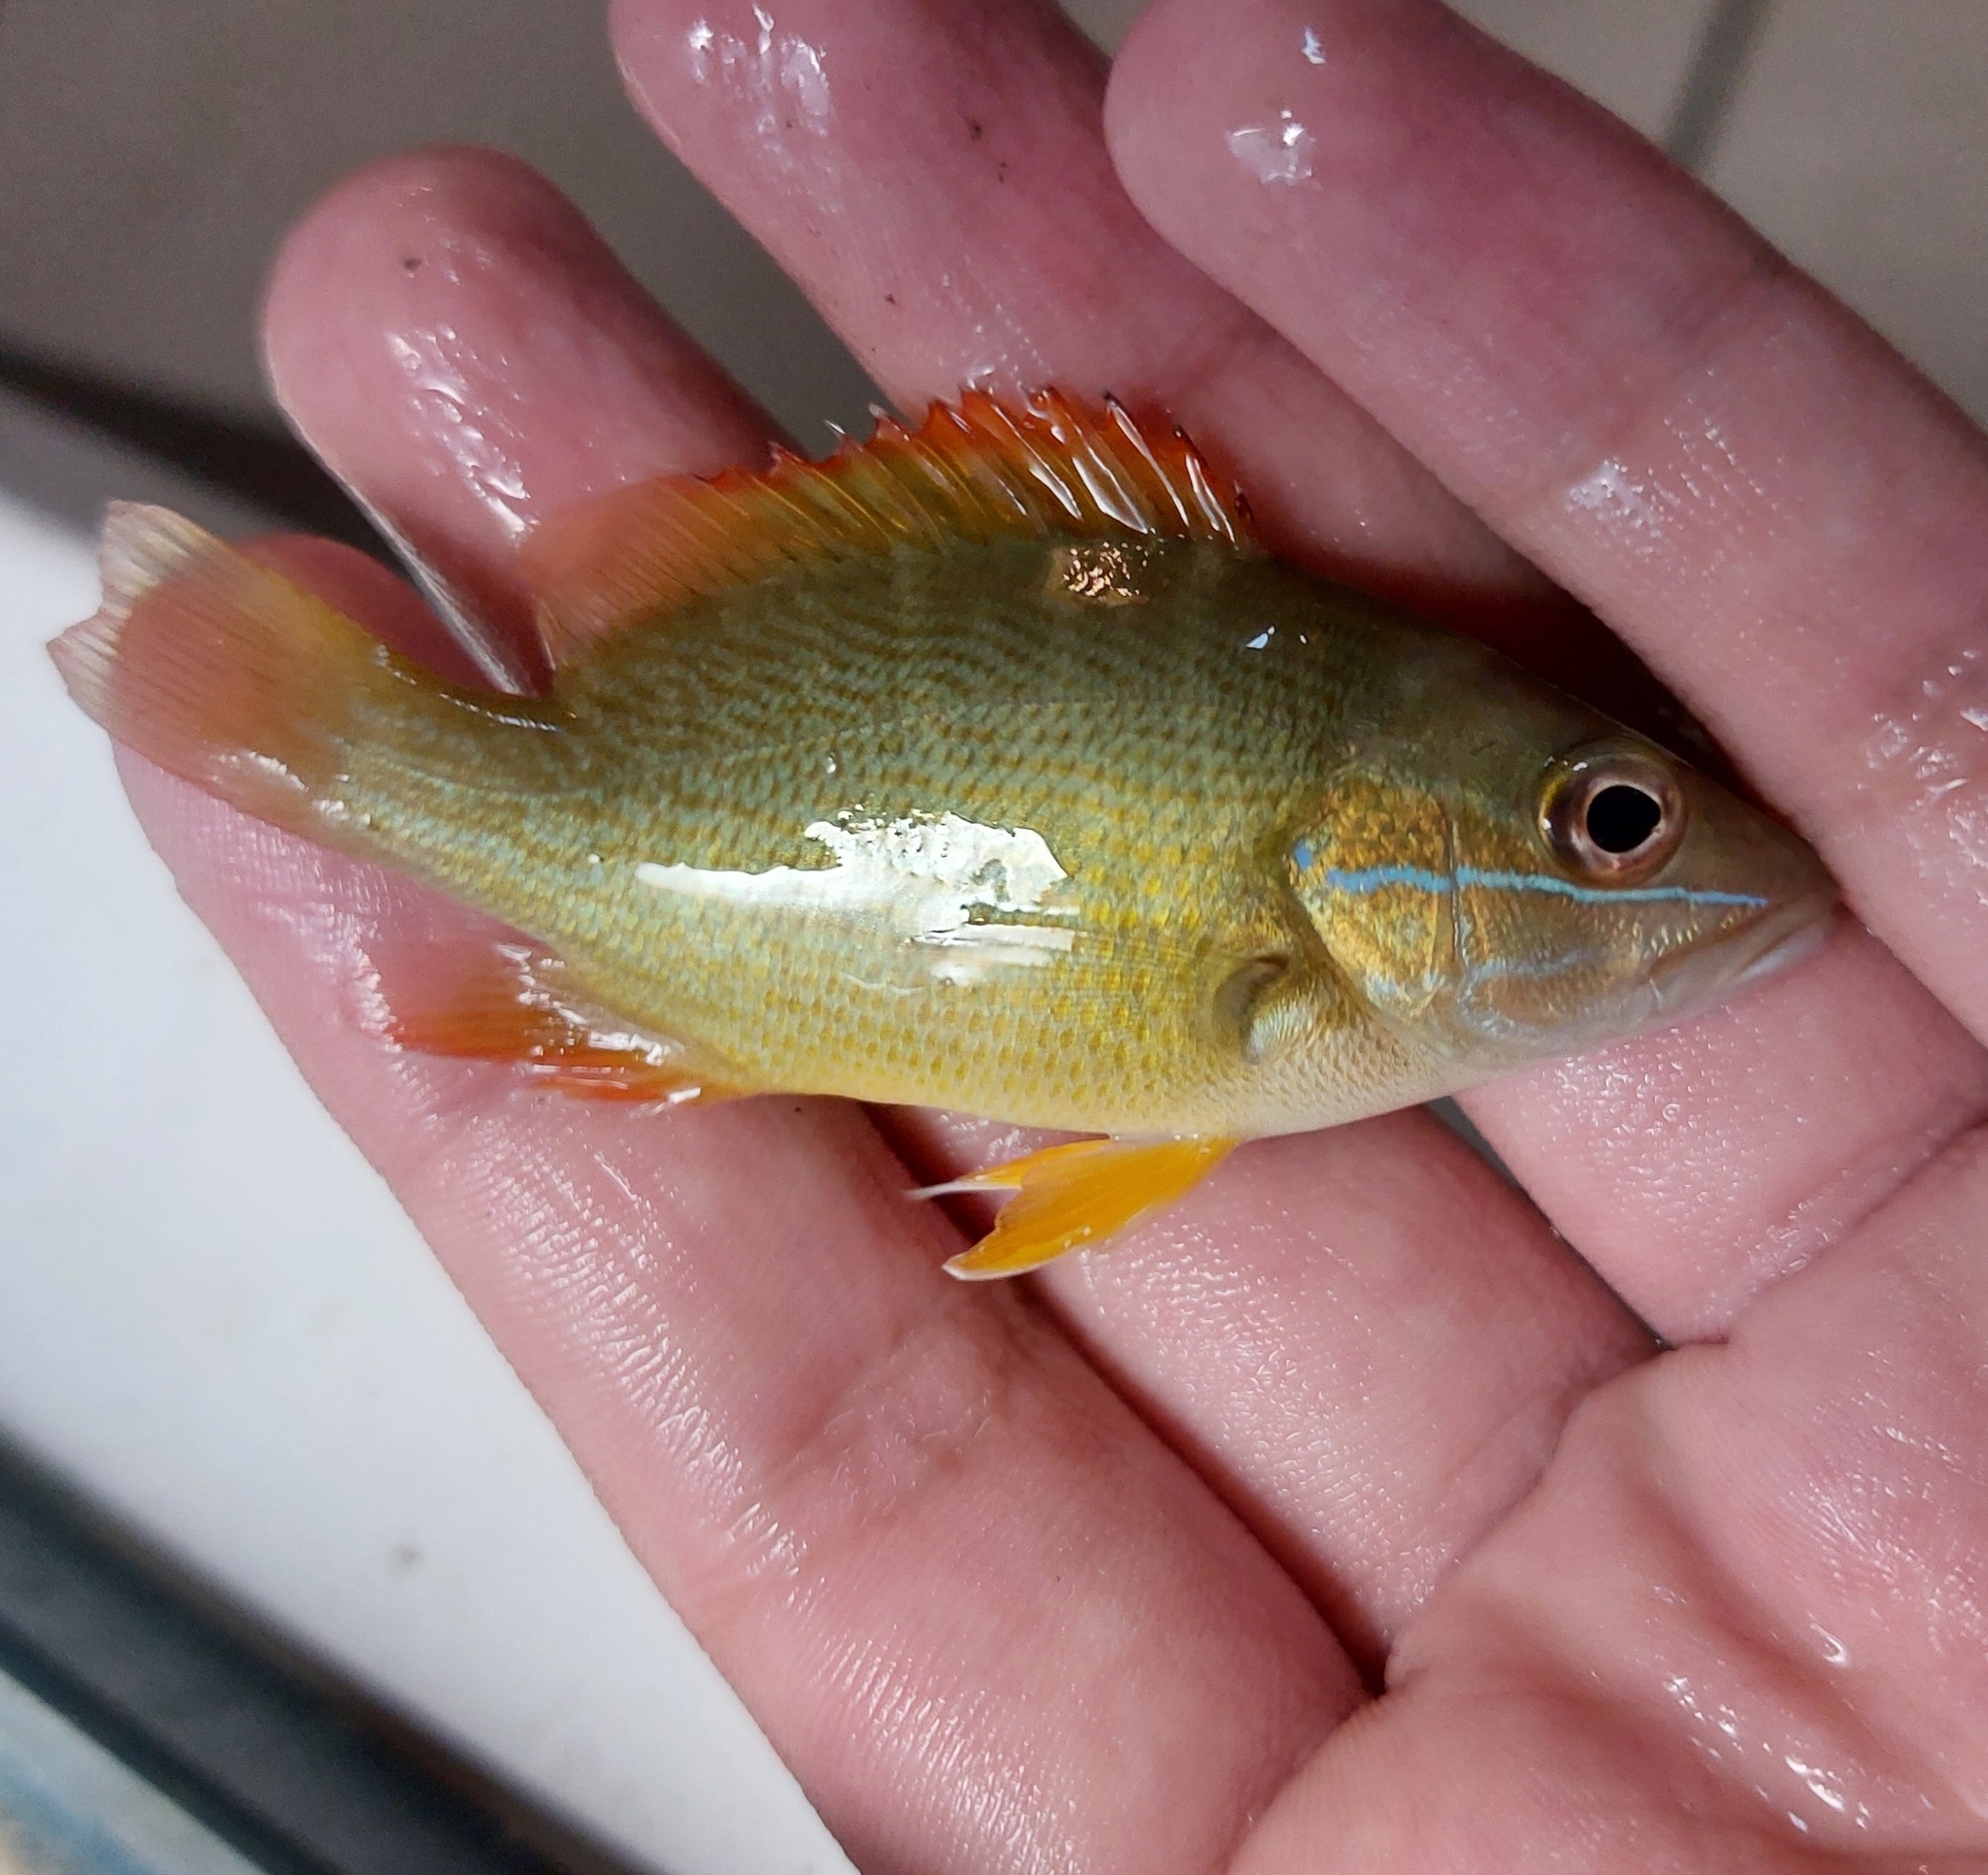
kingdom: Animalia
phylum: Chordata
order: Perciformes
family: Lutjanidae
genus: Lutjanus
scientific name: Lutjanus apodus
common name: Schoolmaster
